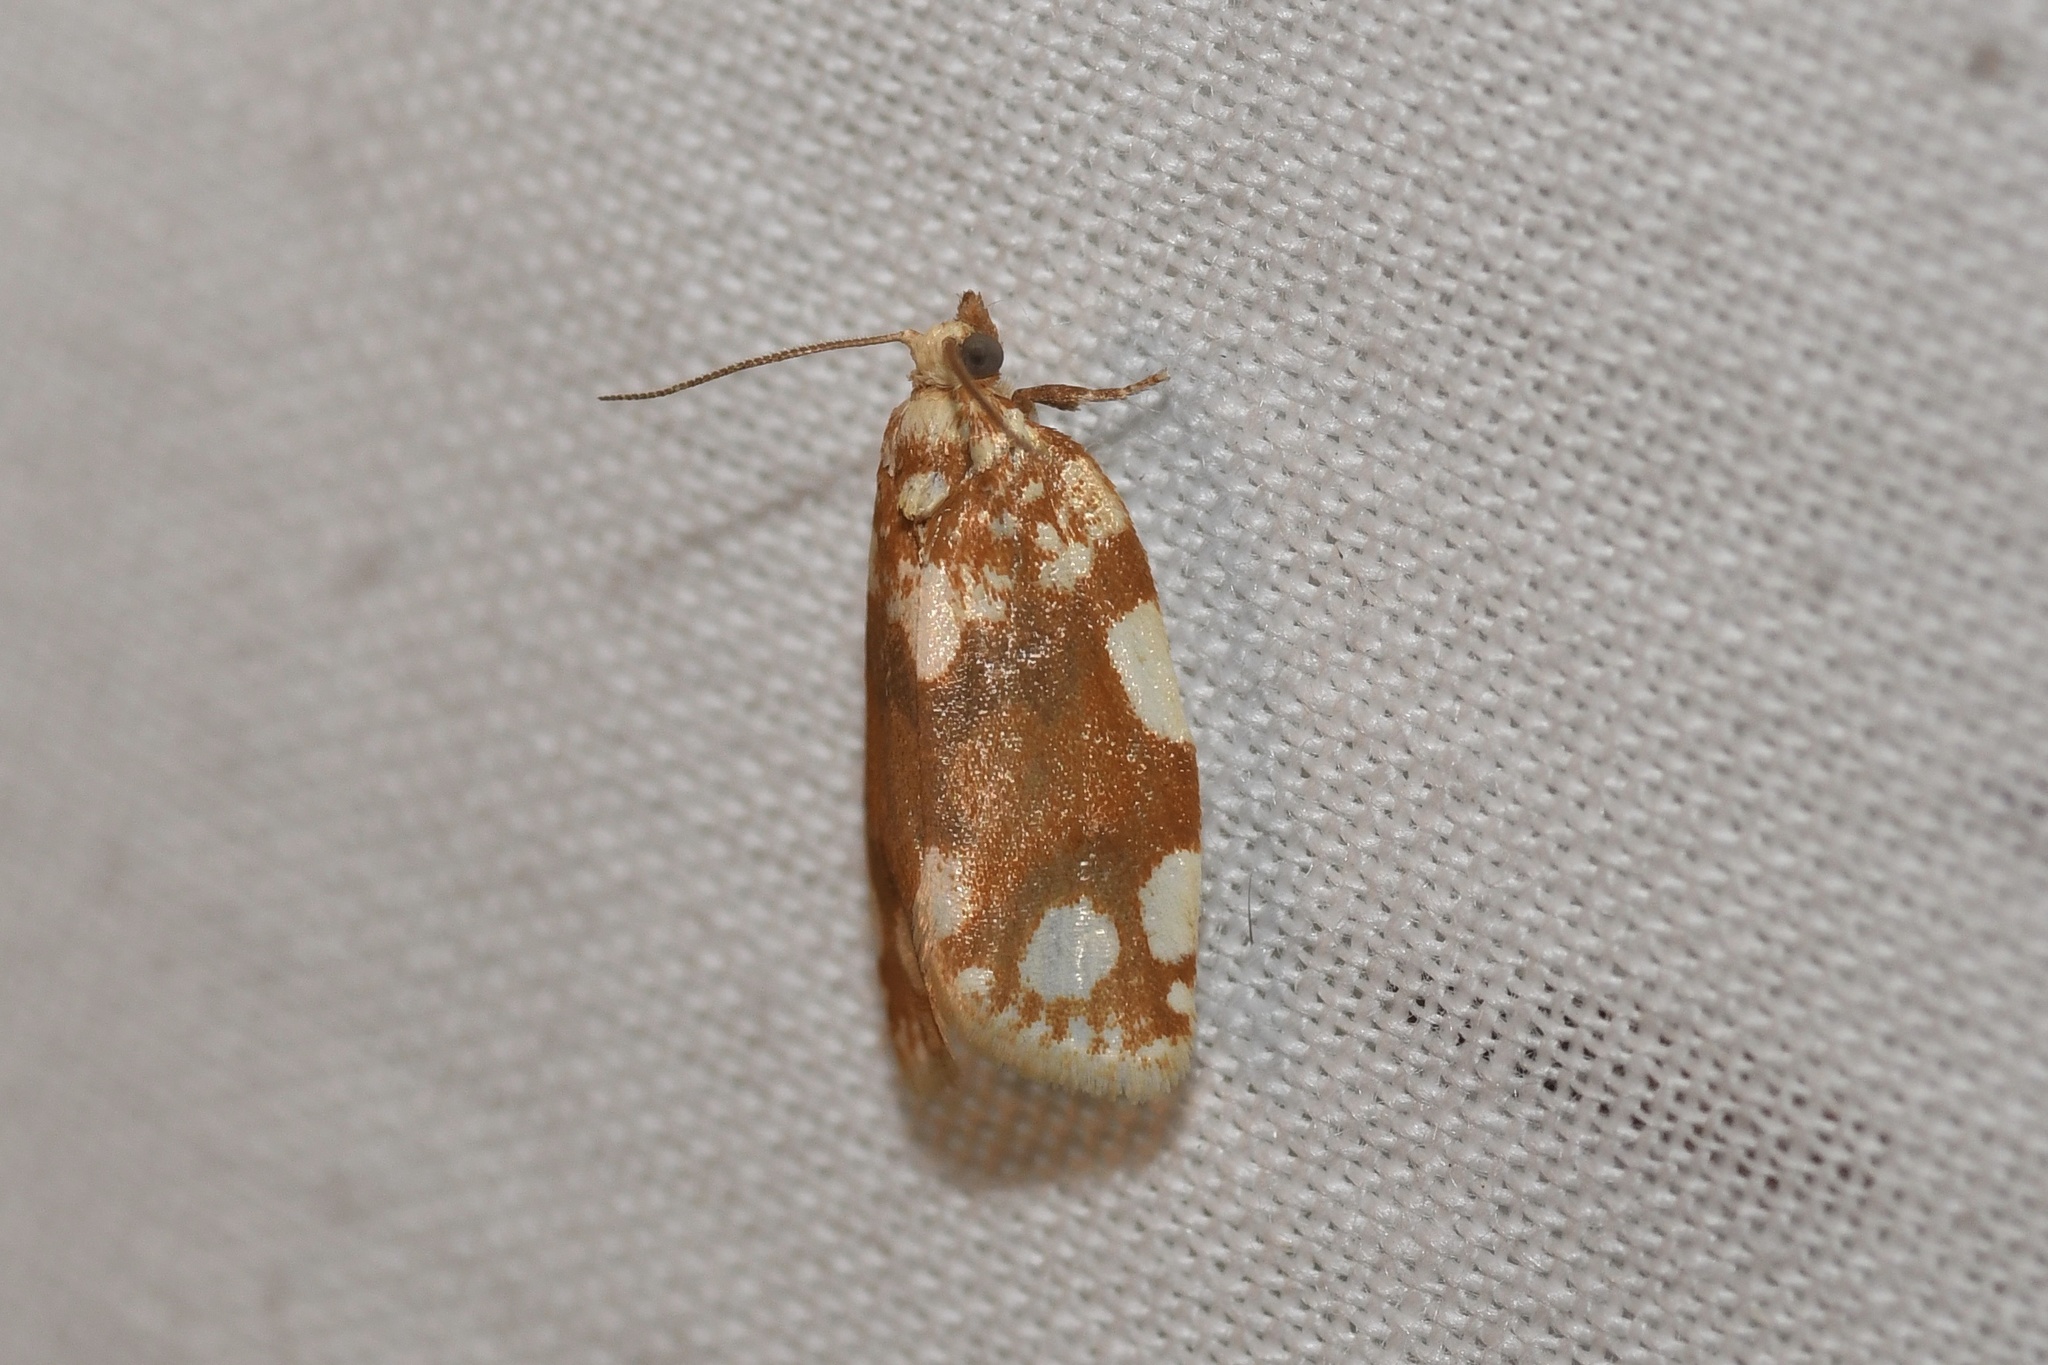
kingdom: Animalia
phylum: Arthropoda
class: Insecta
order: Lepidoptera
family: Tortricidae
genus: Argyrotaenia
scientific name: Argyrotaenia alisellana
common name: White-spotted leafroller moth
